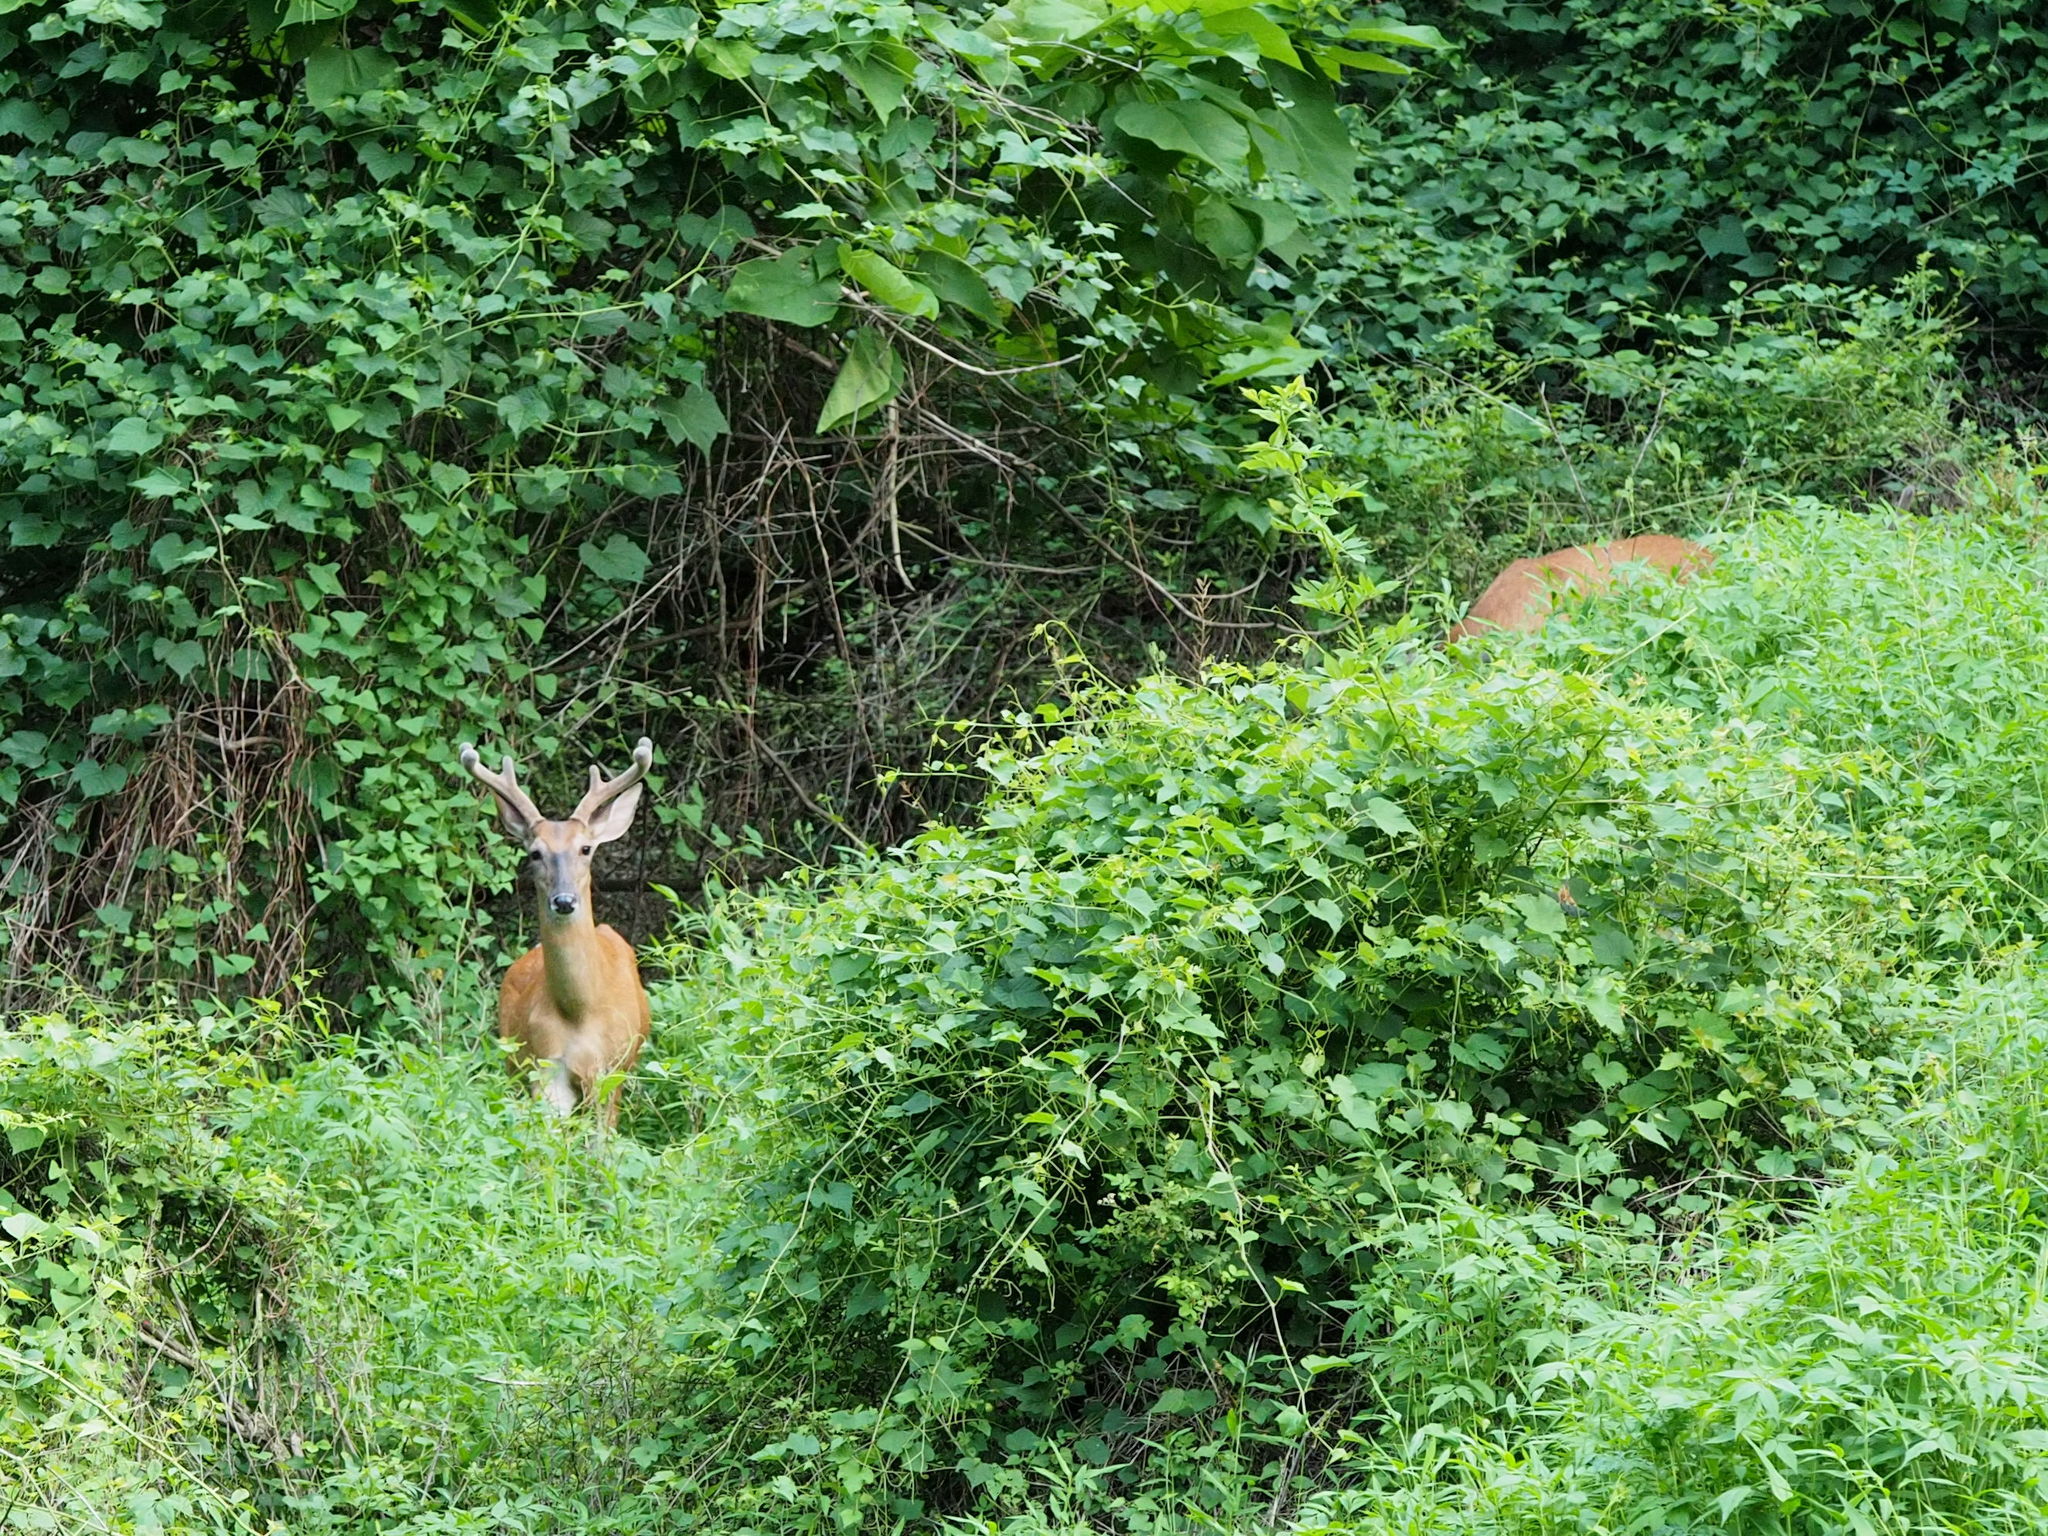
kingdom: Animalia
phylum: Chordata
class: Mammalia
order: Artiodactyla
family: Cervidae
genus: Odocoileus
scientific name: Odocoileus virginianus
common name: White-tailed deer
